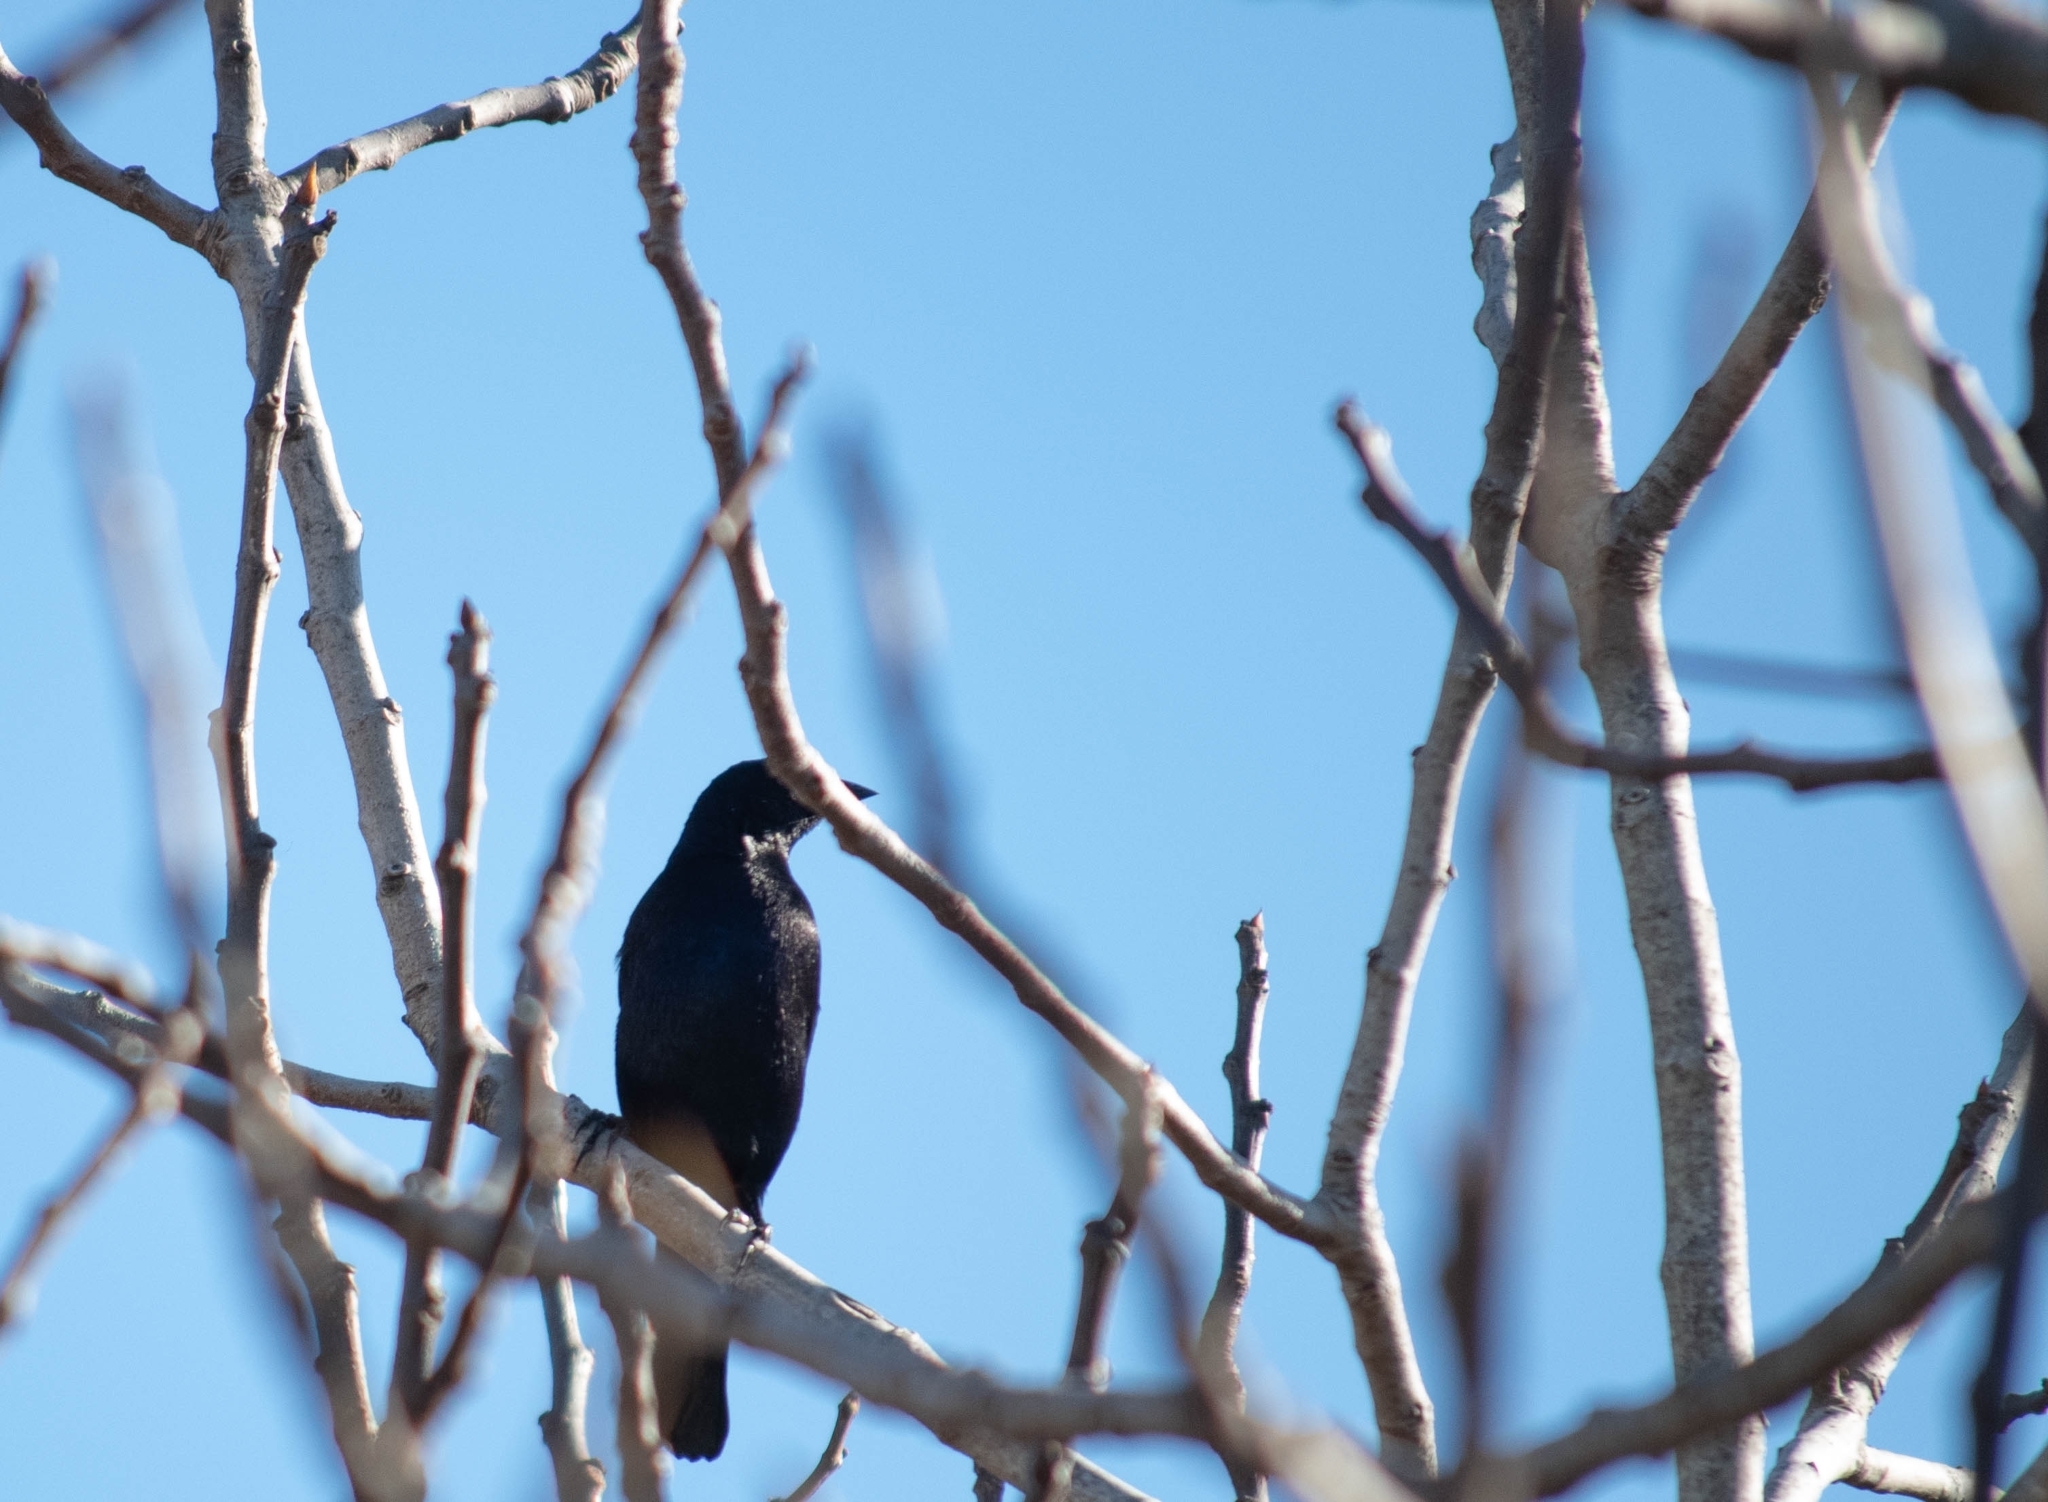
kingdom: Animalia
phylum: Chordata
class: Aves
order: Passeriformes
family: Icteridae
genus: Molothrus
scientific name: Molothrus bonariensis
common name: Shiny cowbird
